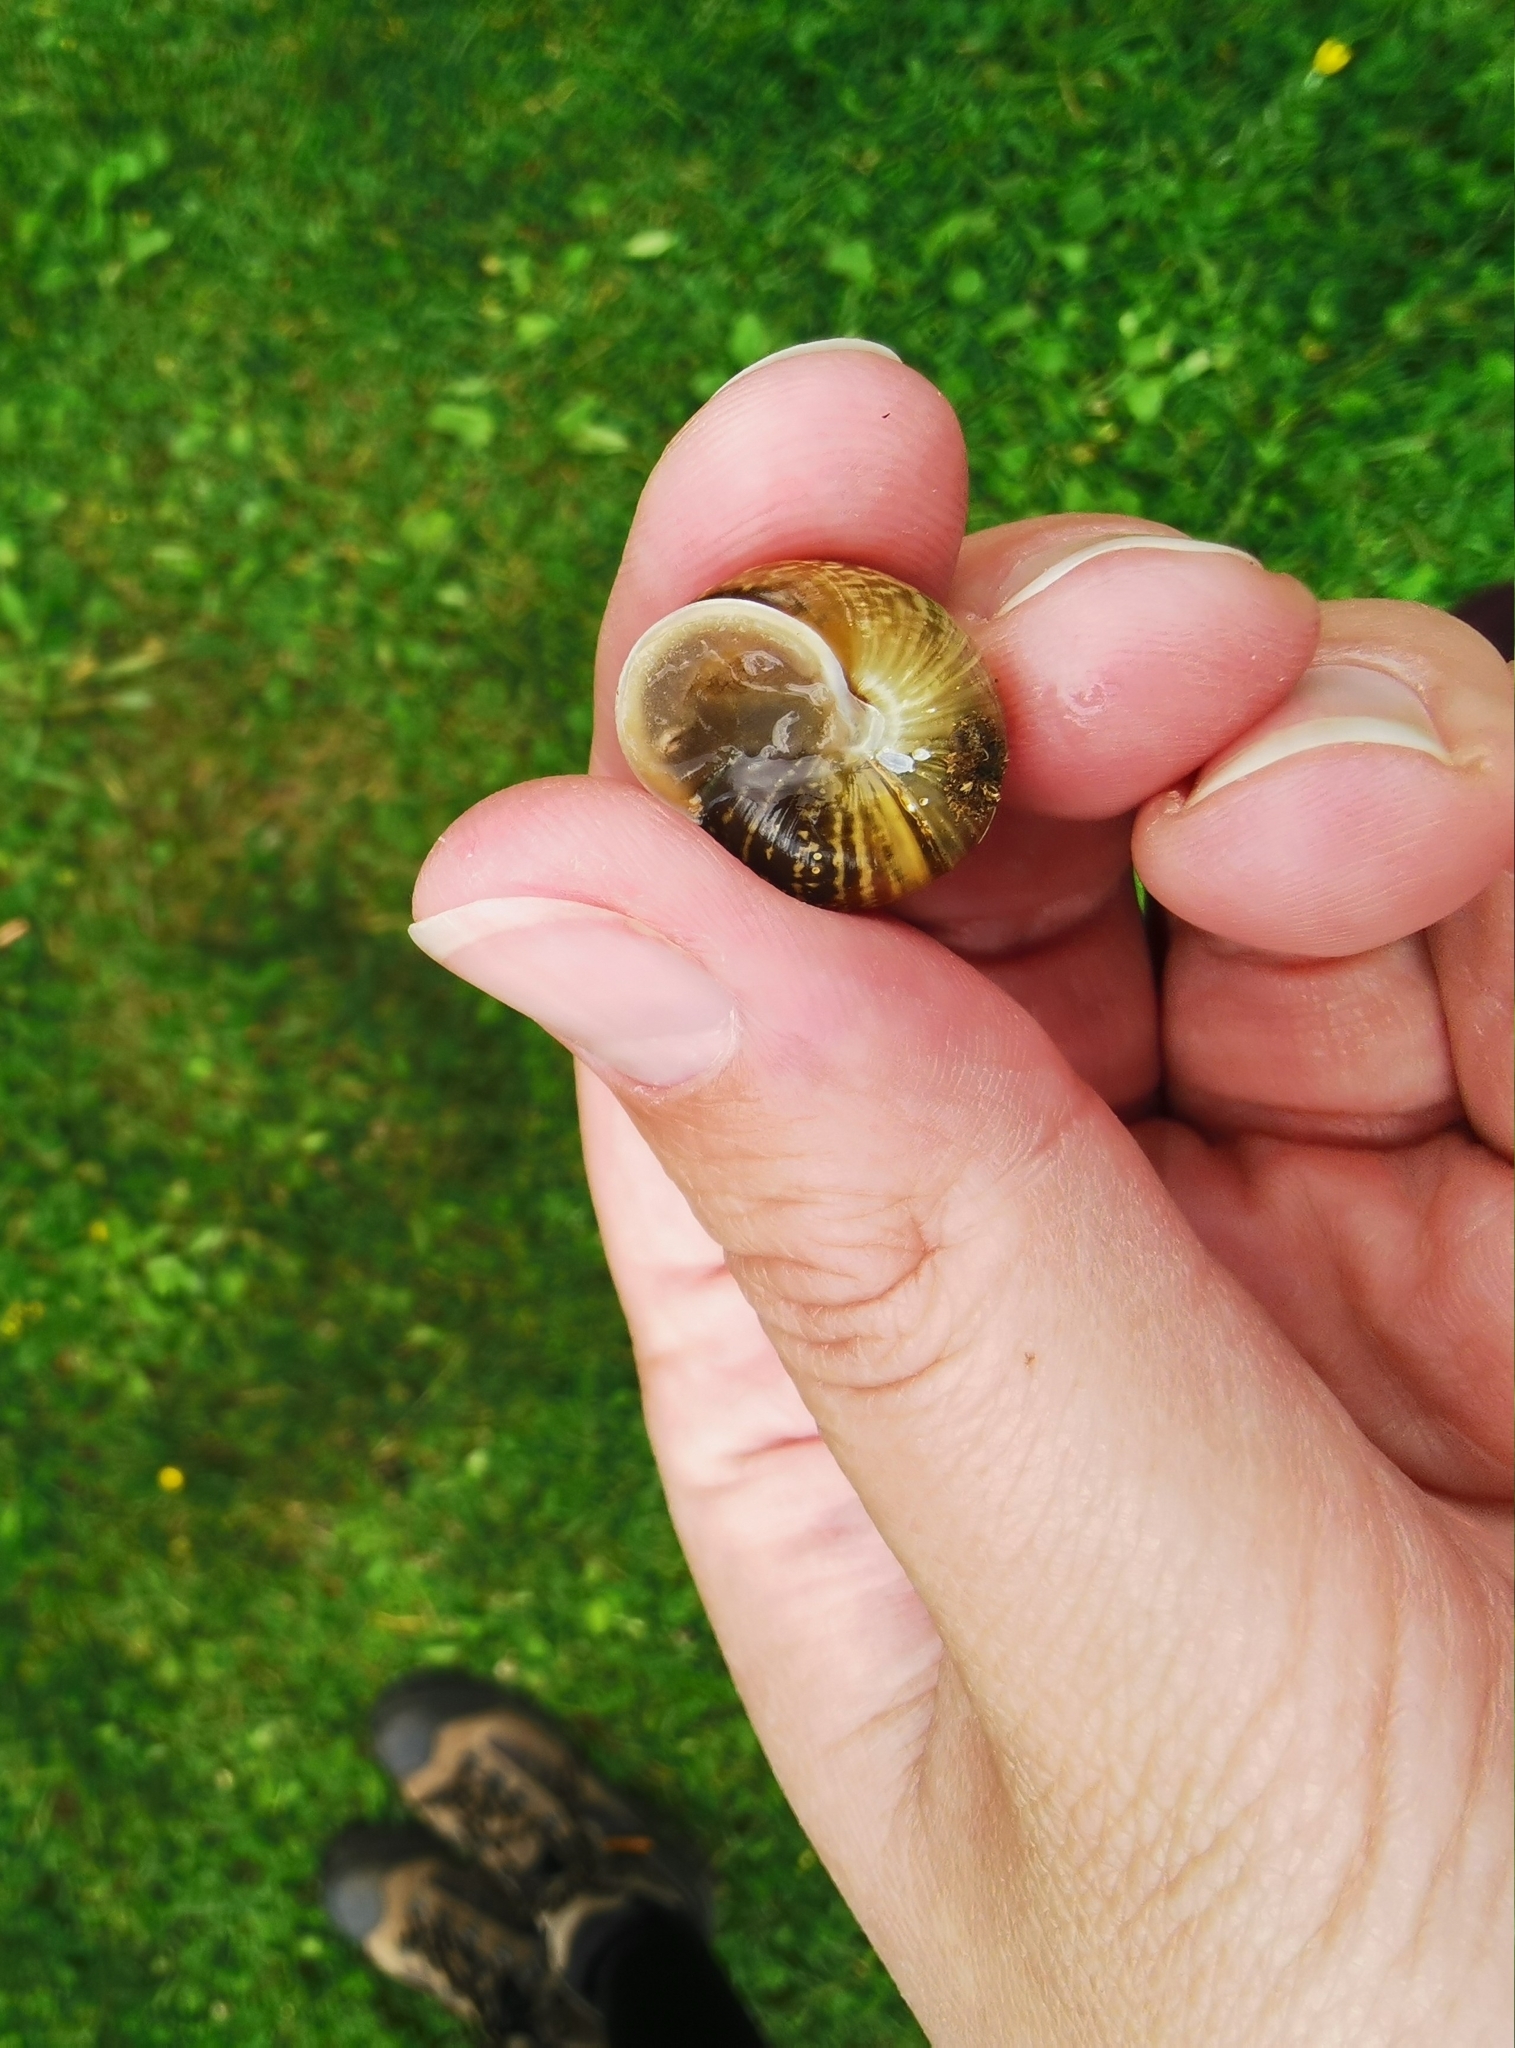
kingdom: Animalia
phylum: Mollusca
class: Gastropoda
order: Stylommatophora
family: Helicidae
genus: Arianta
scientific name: Arianta arbustorum
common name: Copse snail
